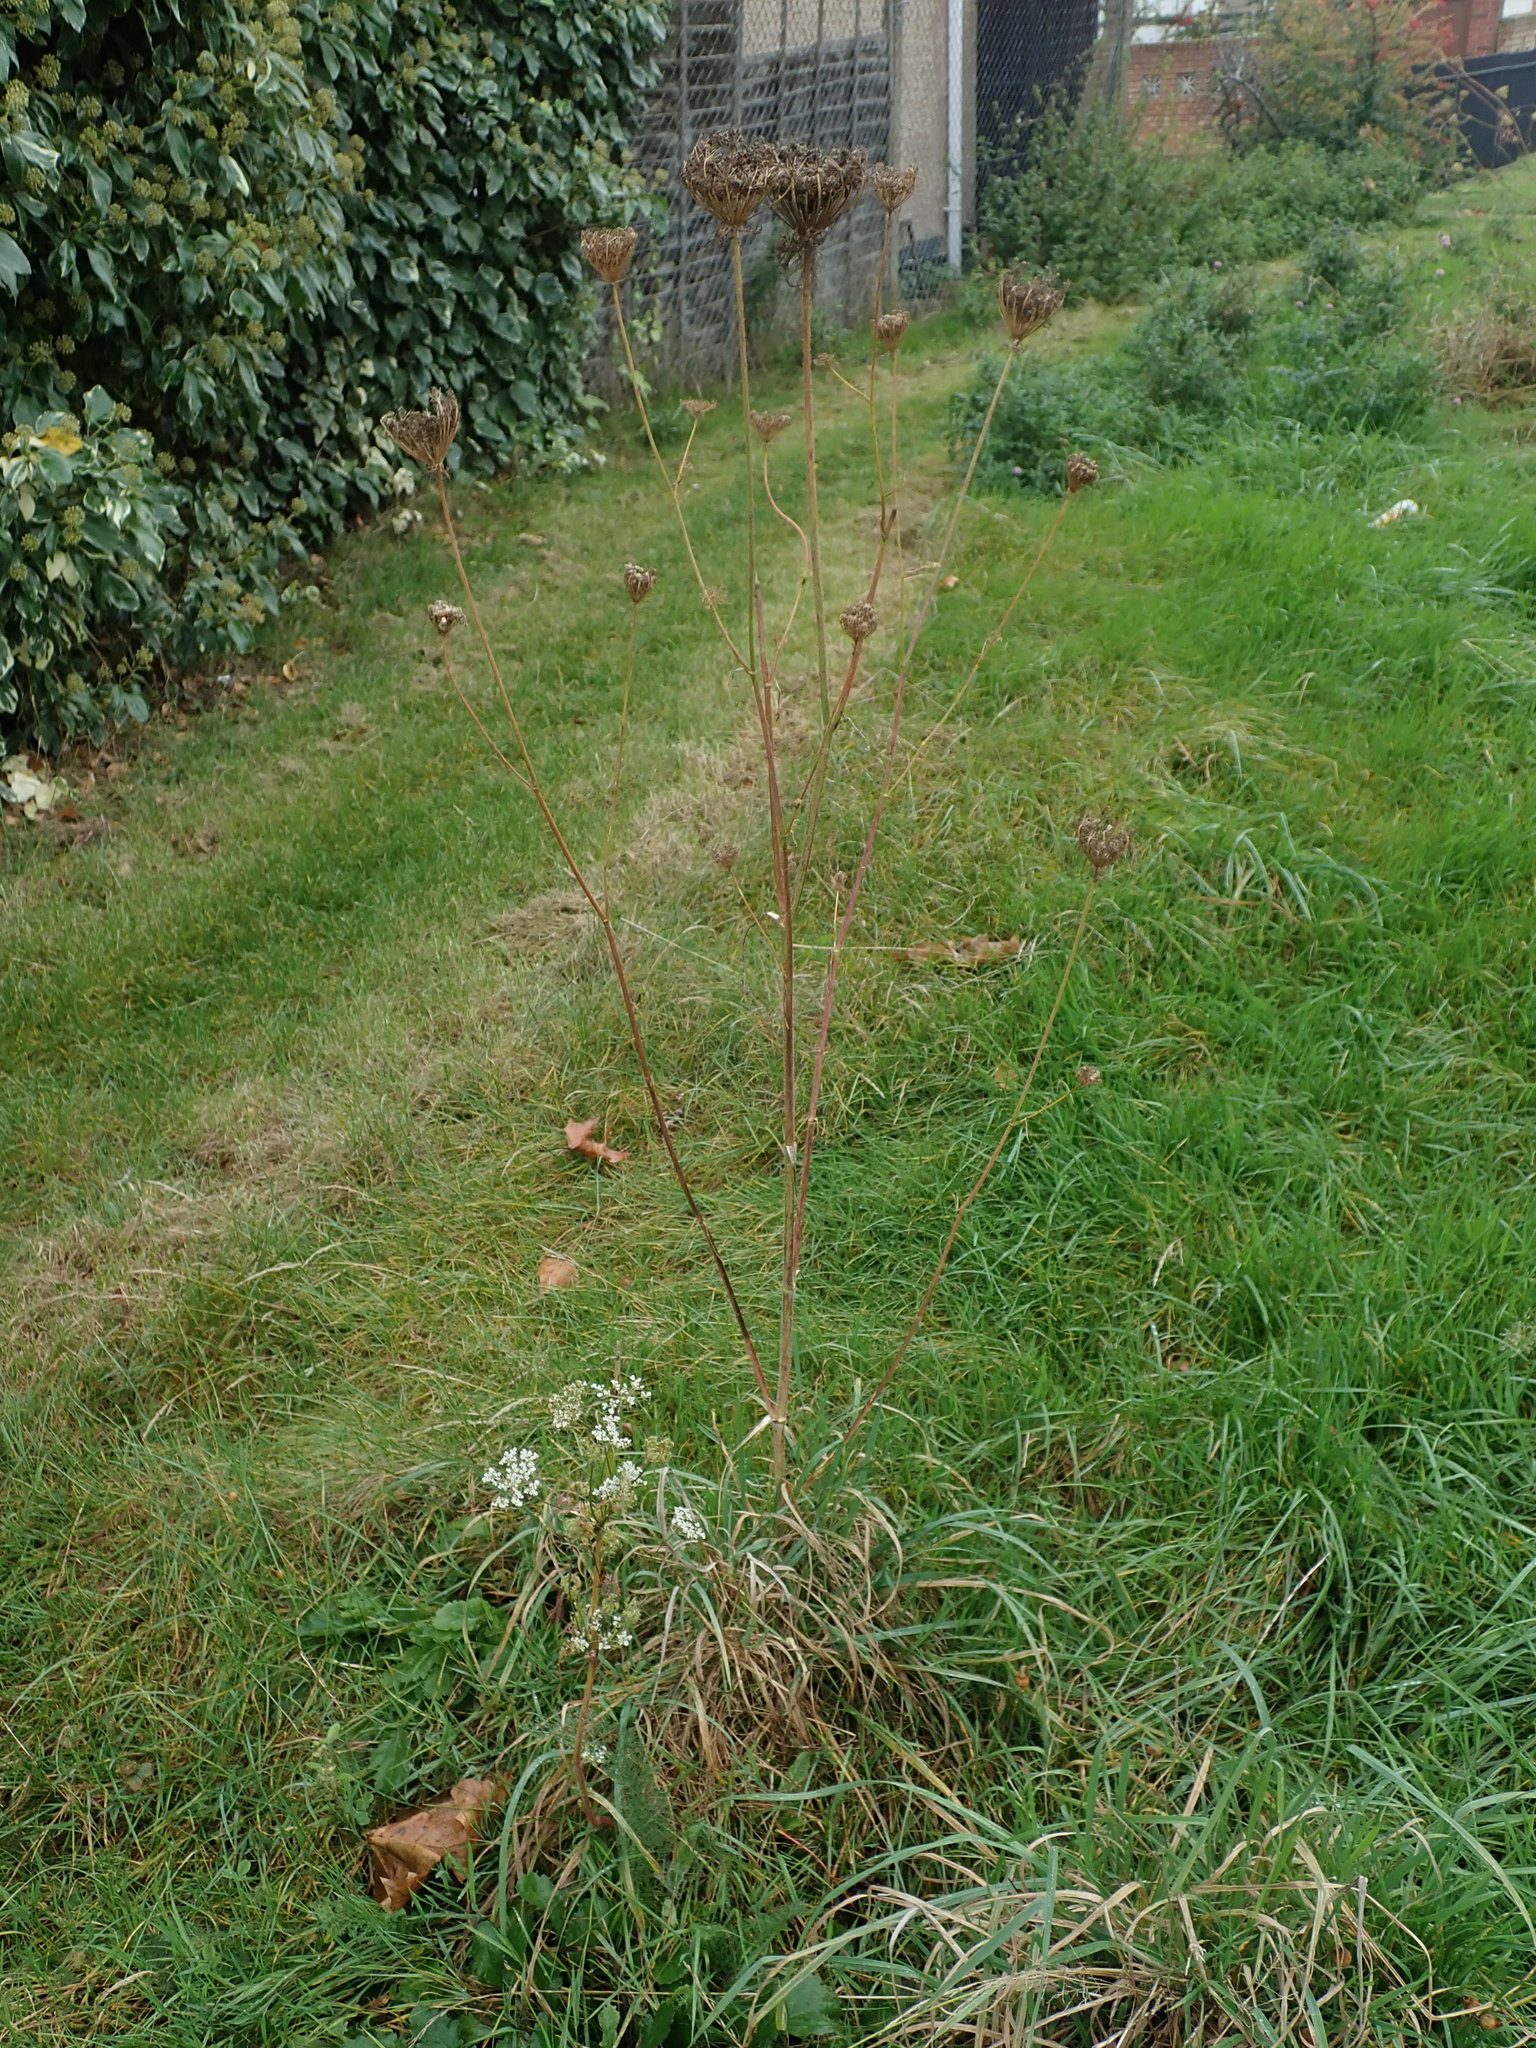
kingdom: Plantae
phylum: Tracheophyta
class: Magnoliopsida
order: Apiales
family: Apiaceae
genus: Daucus
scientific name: Daucus carota
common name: Wild carrot
